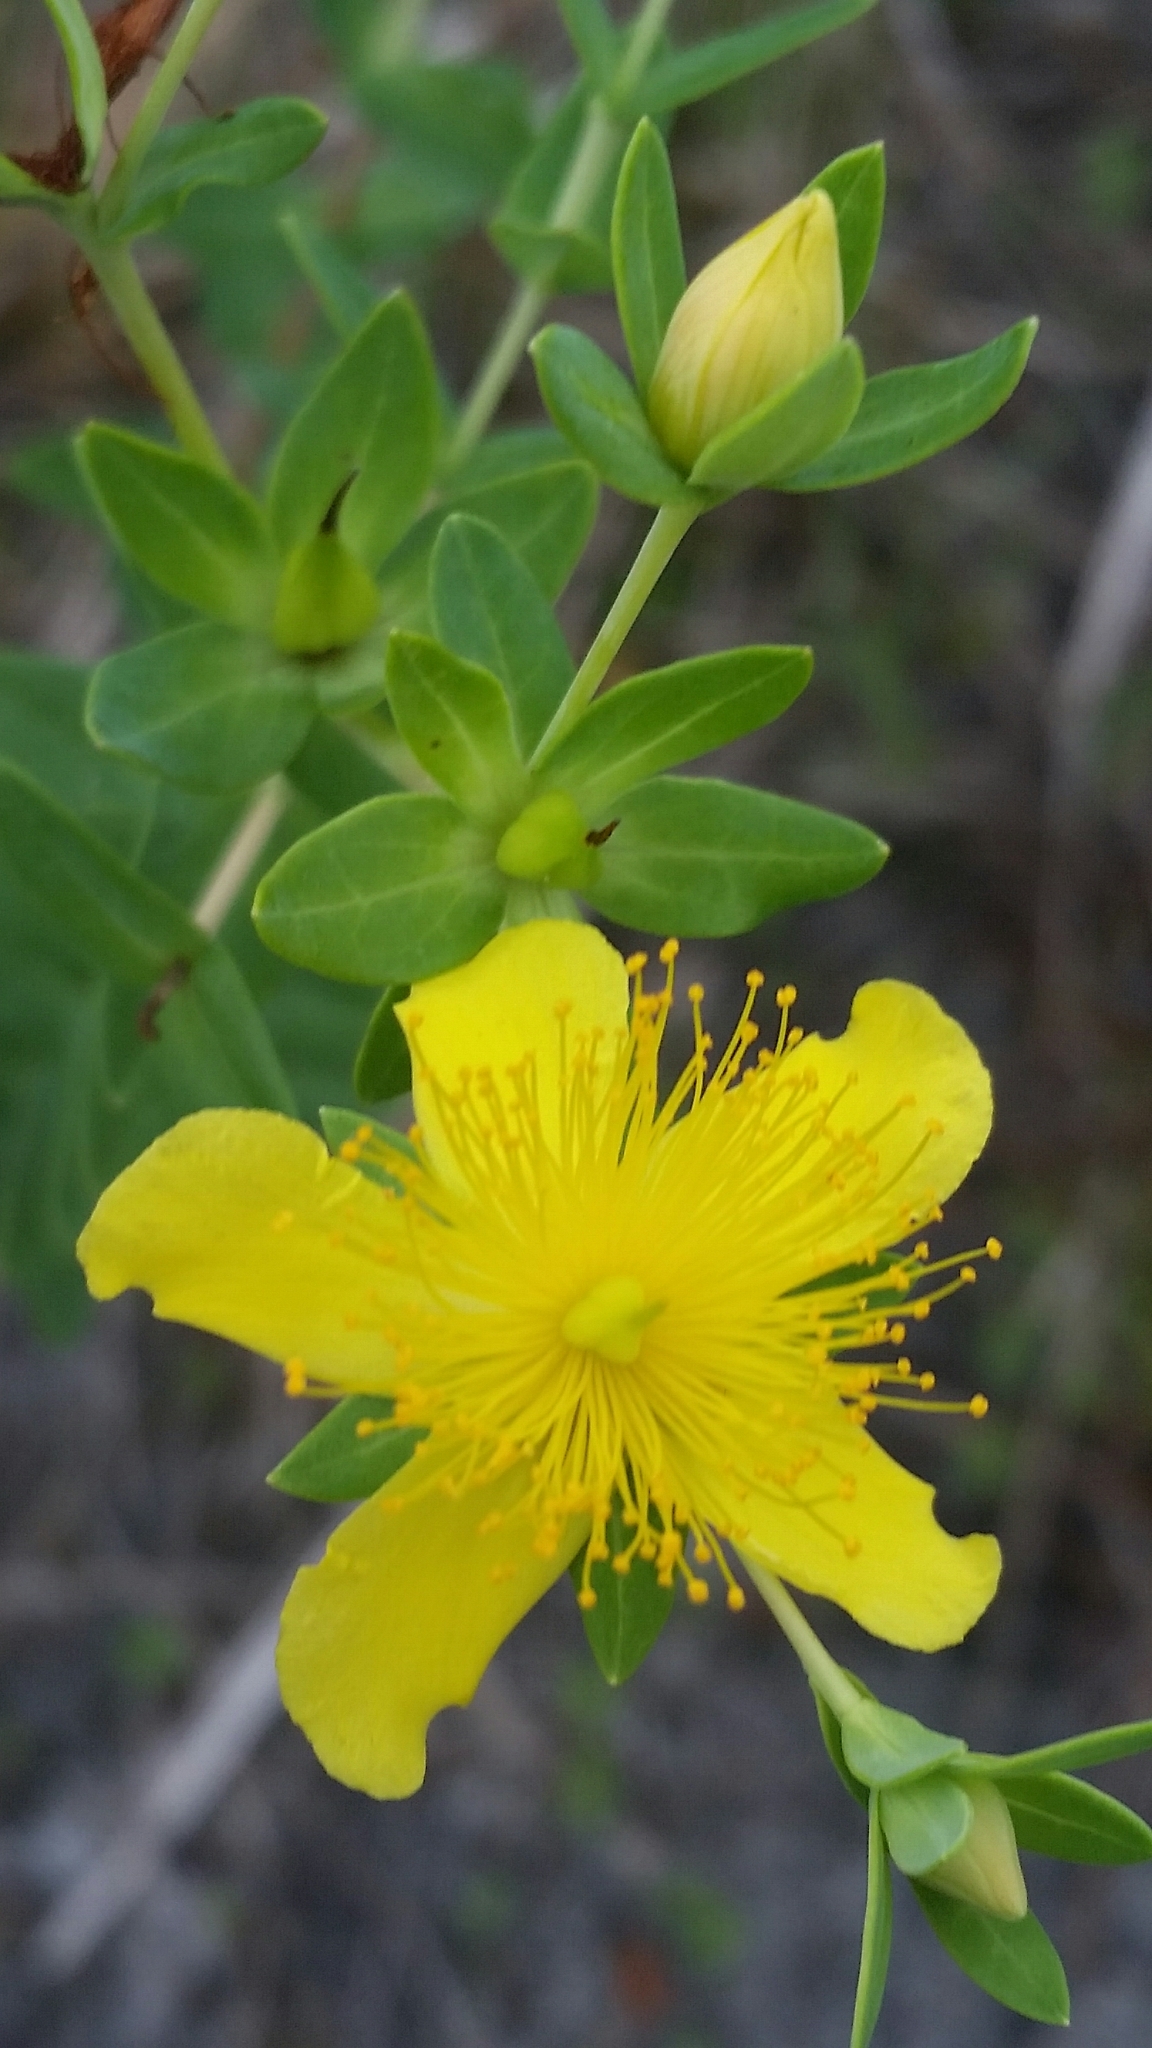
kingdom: Plantae
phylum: Tracheophyta
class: Magnoliopsida
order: Malpighiales
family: Hypericaceae
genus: Hypericum
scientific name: Hypericum myrtifolium
